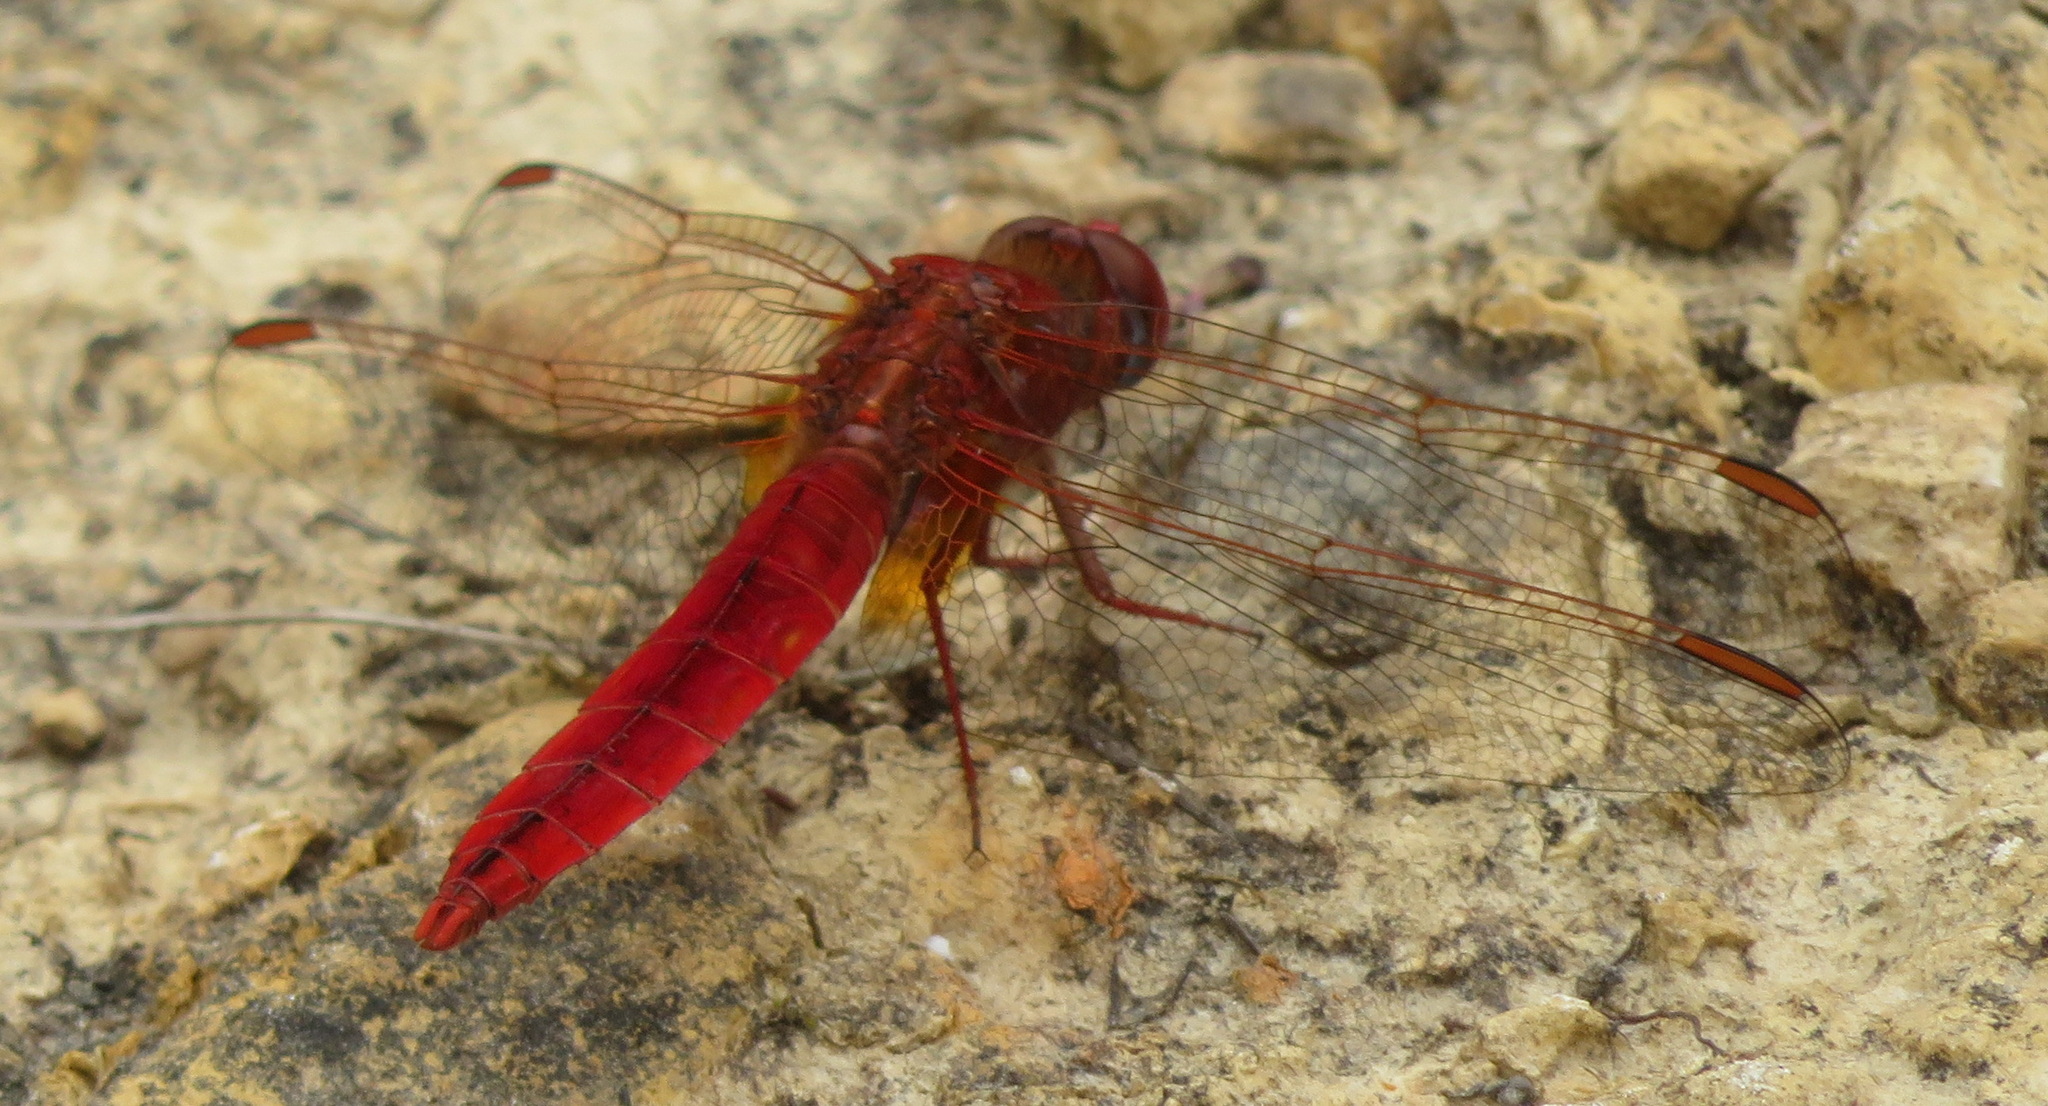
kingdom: Animalia
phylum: Arthropoda
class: Insecta
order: Odonata
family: Libellulidae
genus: Crocothemis
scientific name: Crocothemis erythraea
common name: Scarlet dragonfly
